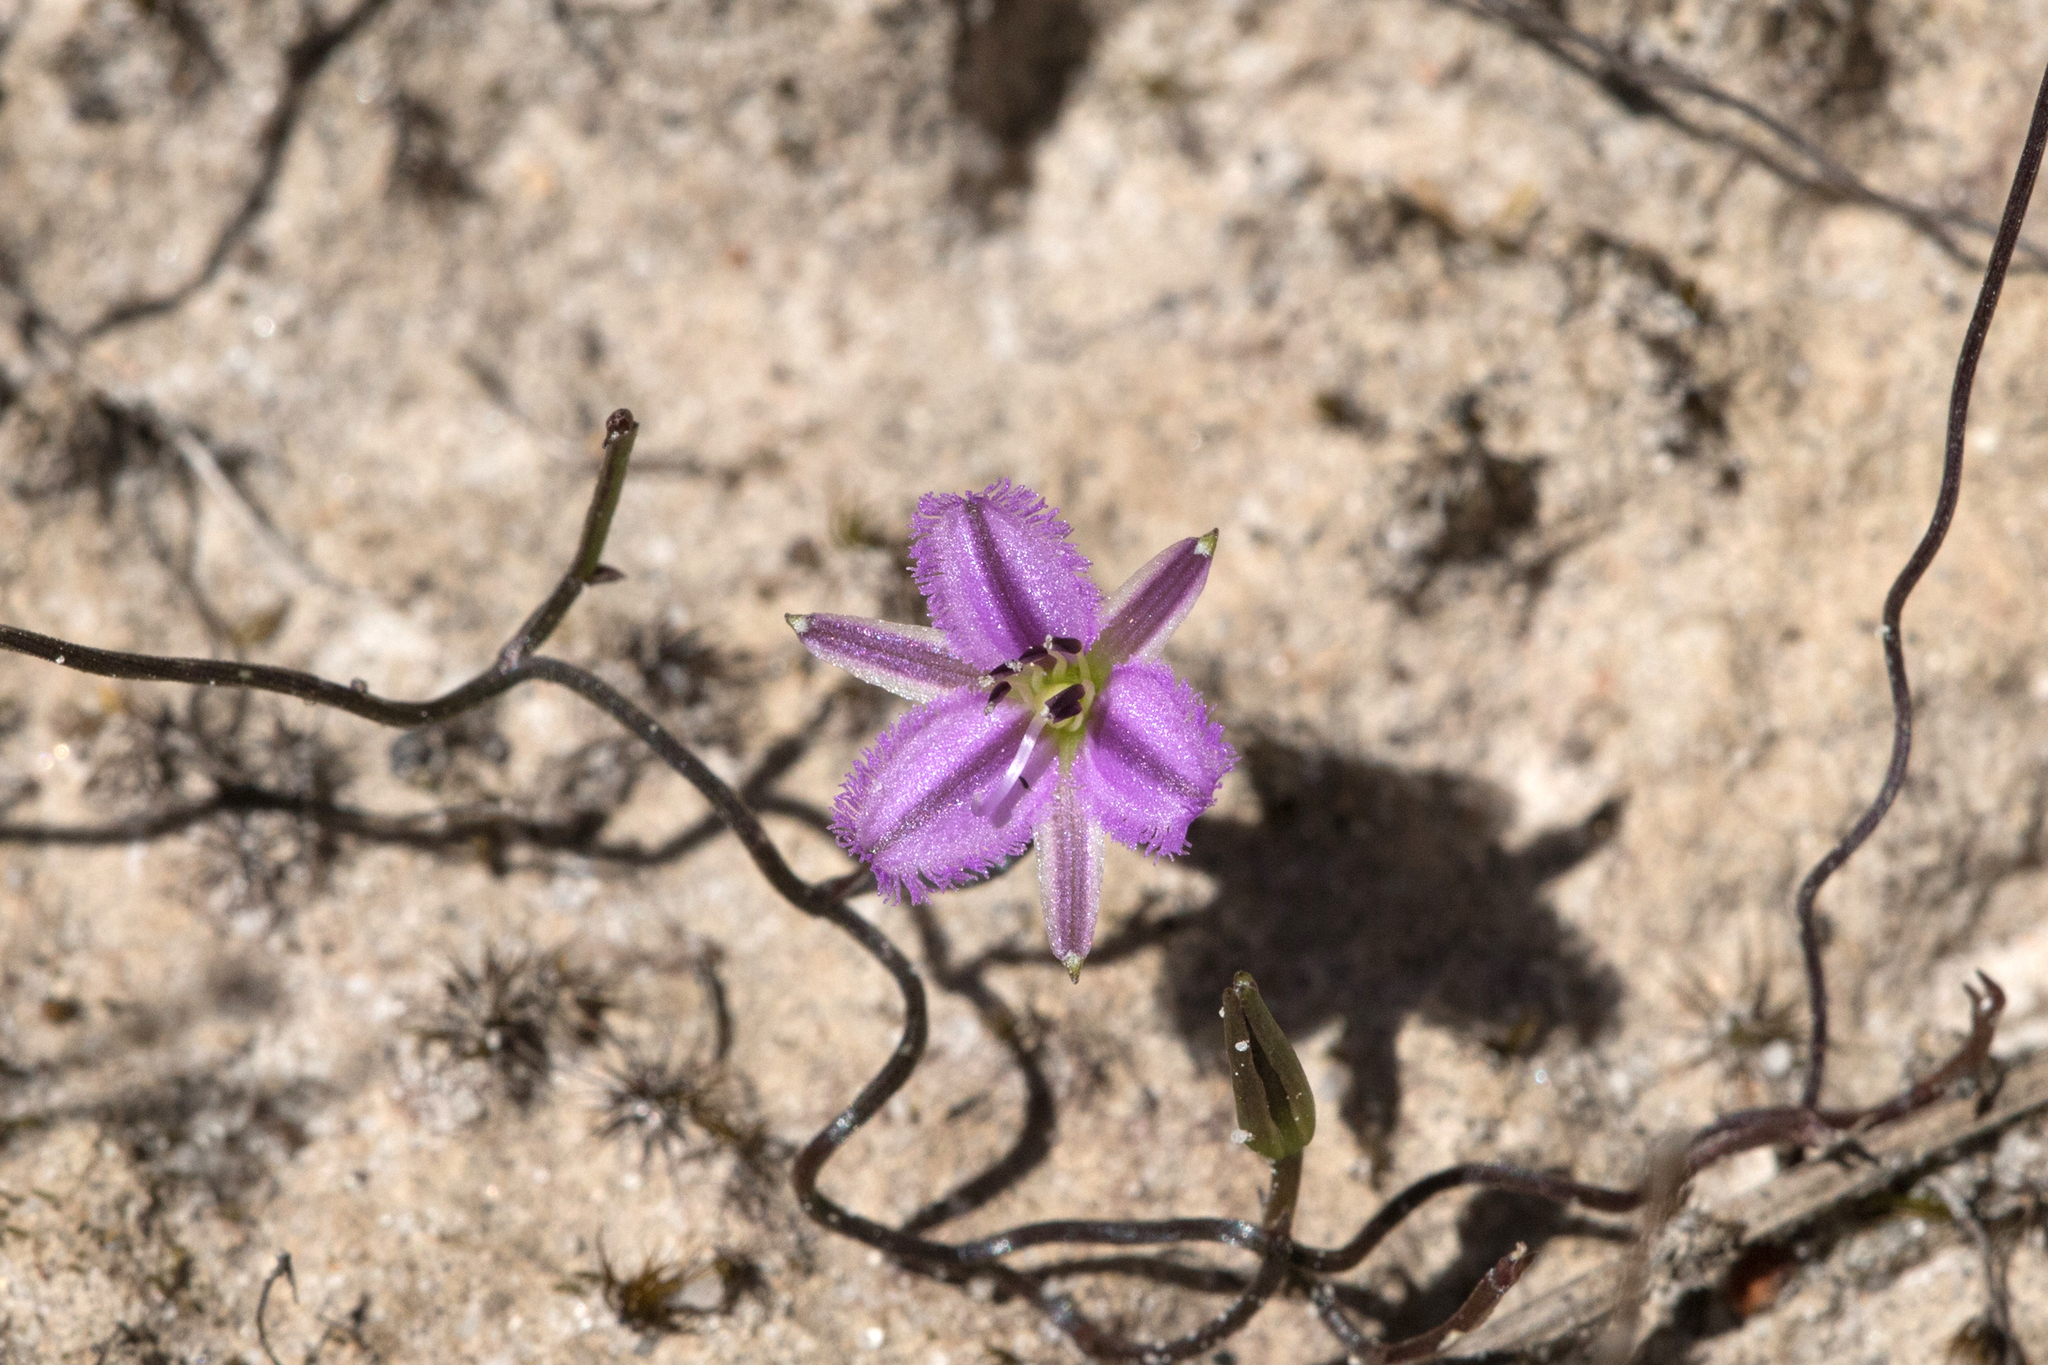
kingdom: Plantae
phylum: Tracheophyta
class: Liliopsida
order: Asparagales
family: Asparagaceae
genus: Thysanotus
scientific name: Thysanotus patersonii
